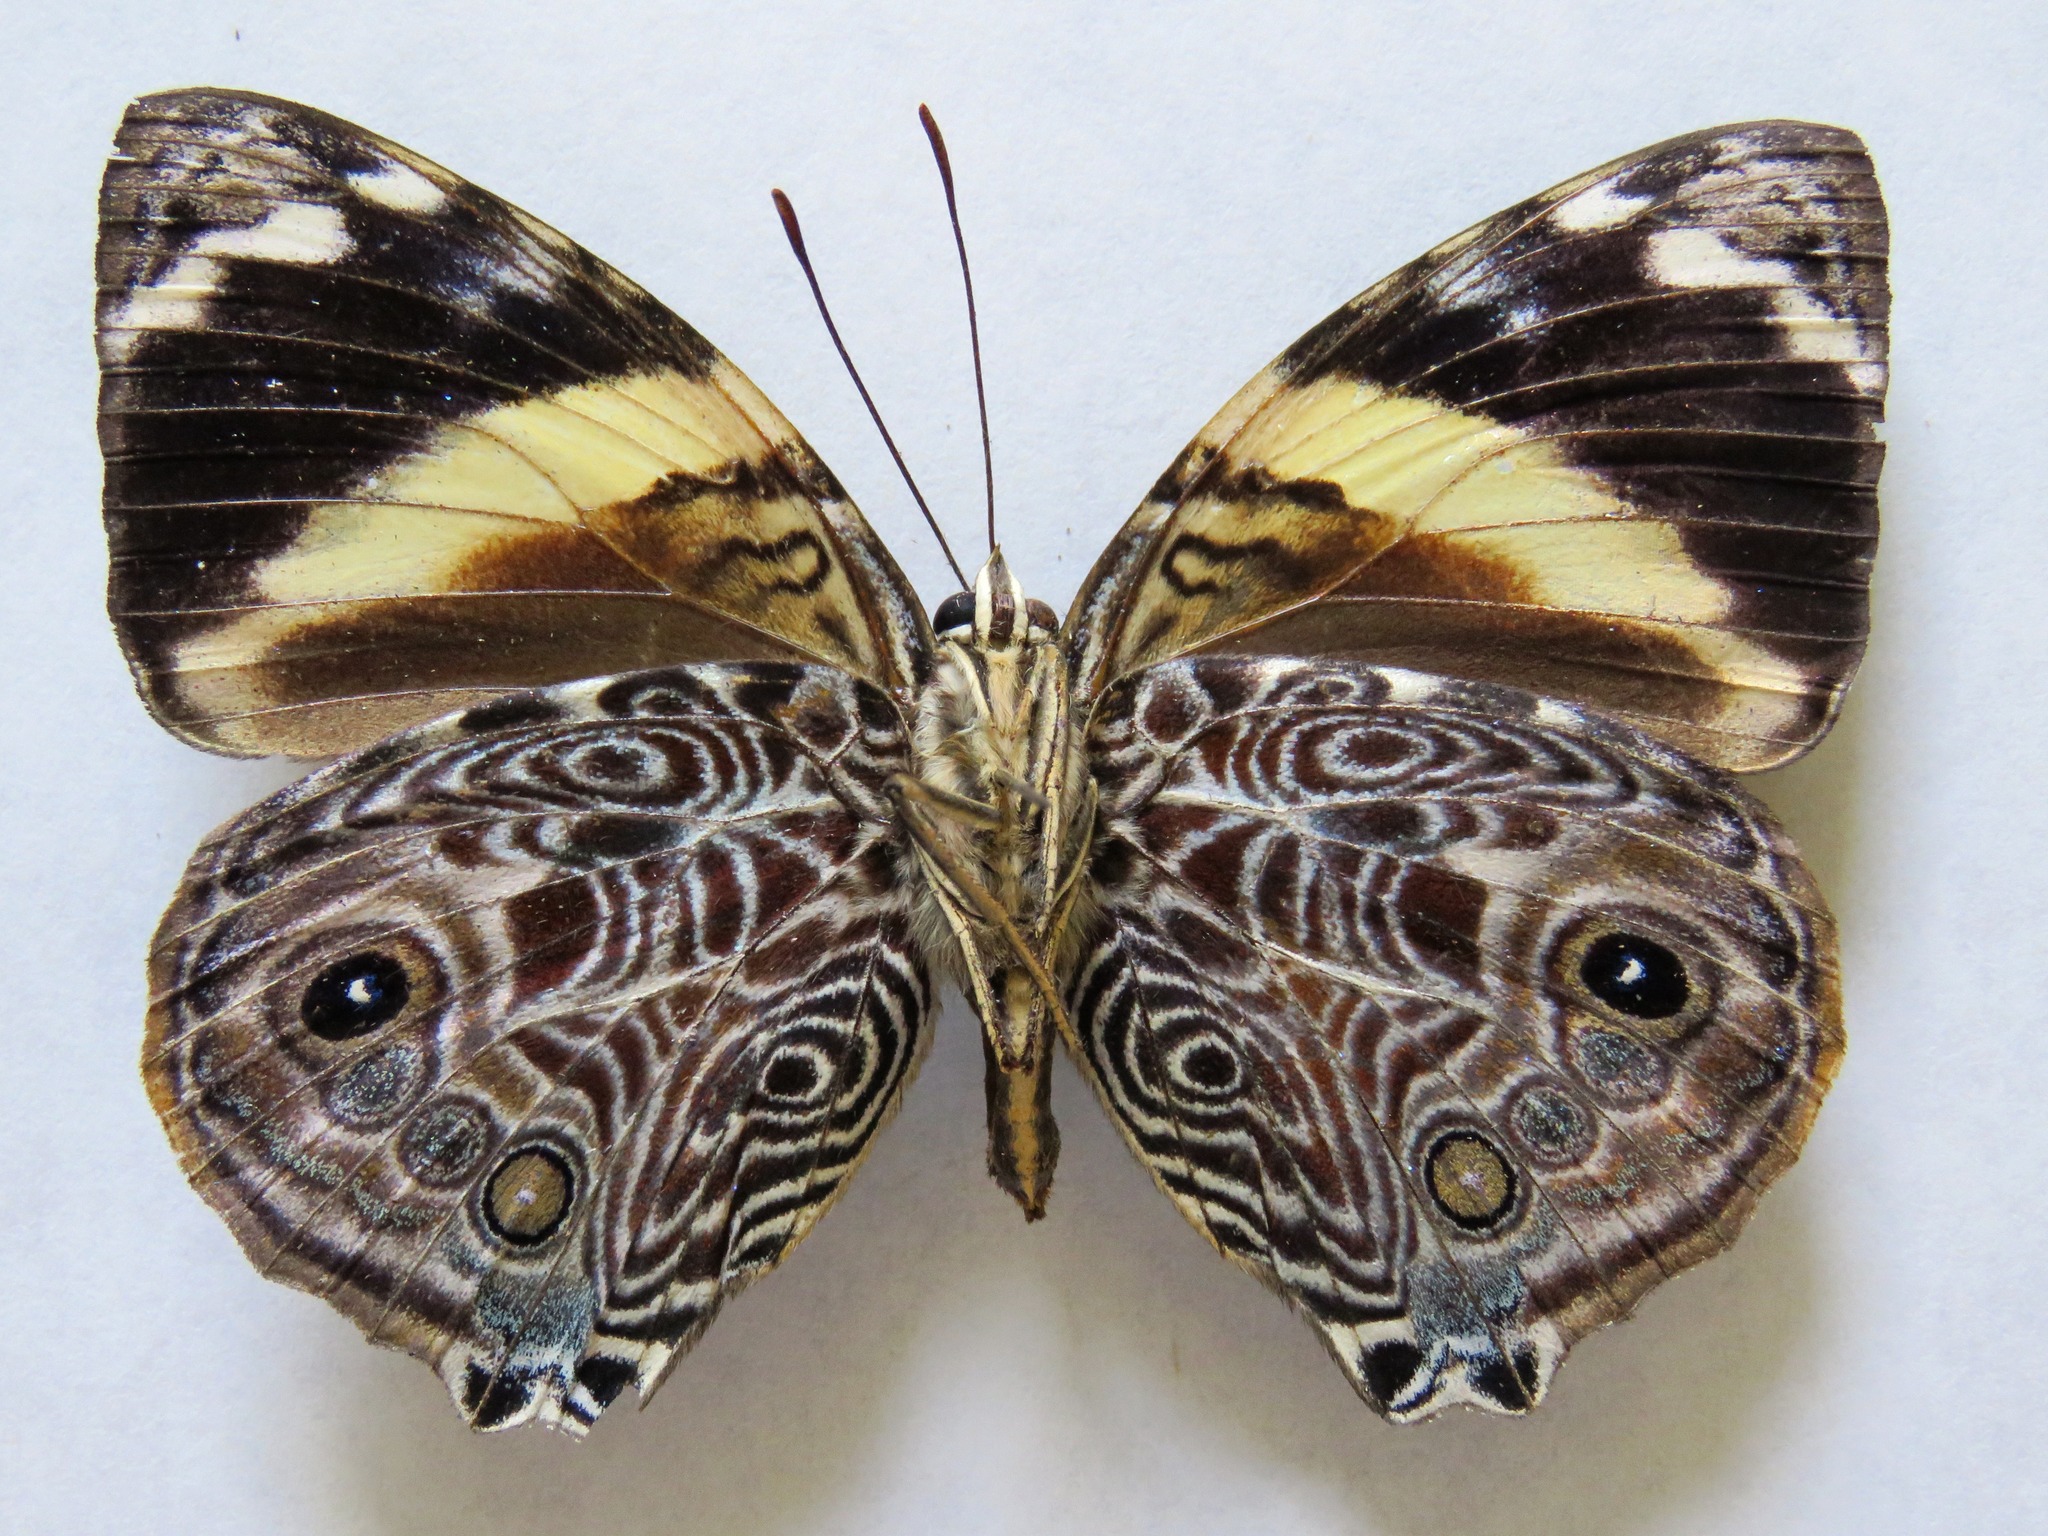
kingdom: Animalia
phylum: Arthropoda
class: Insecta
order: Lepidoptera
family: Nymphalidae
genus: Smyrna
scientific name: Smyrna blomfildia
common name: Blomfild's beauty
